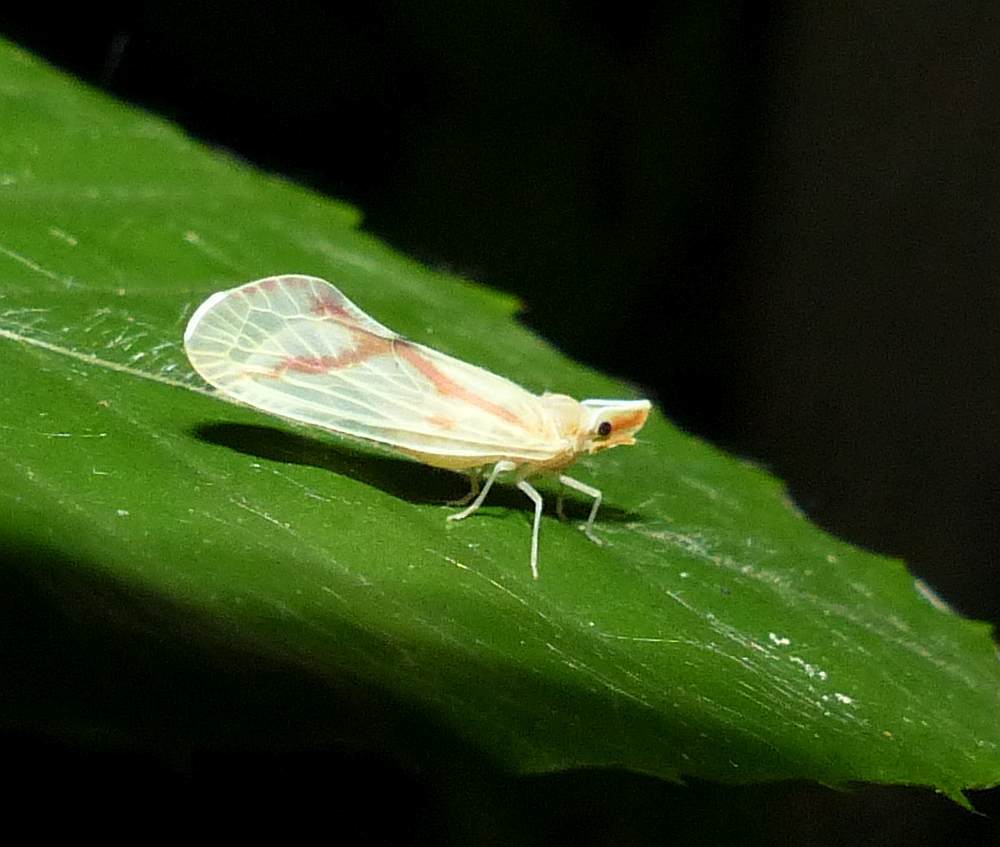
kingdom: Animalia
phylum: Arthropoda
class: Insecta
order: Hemiptera
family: Derbidae
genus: Otiocerus
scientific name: Otiocerus coquebertii
